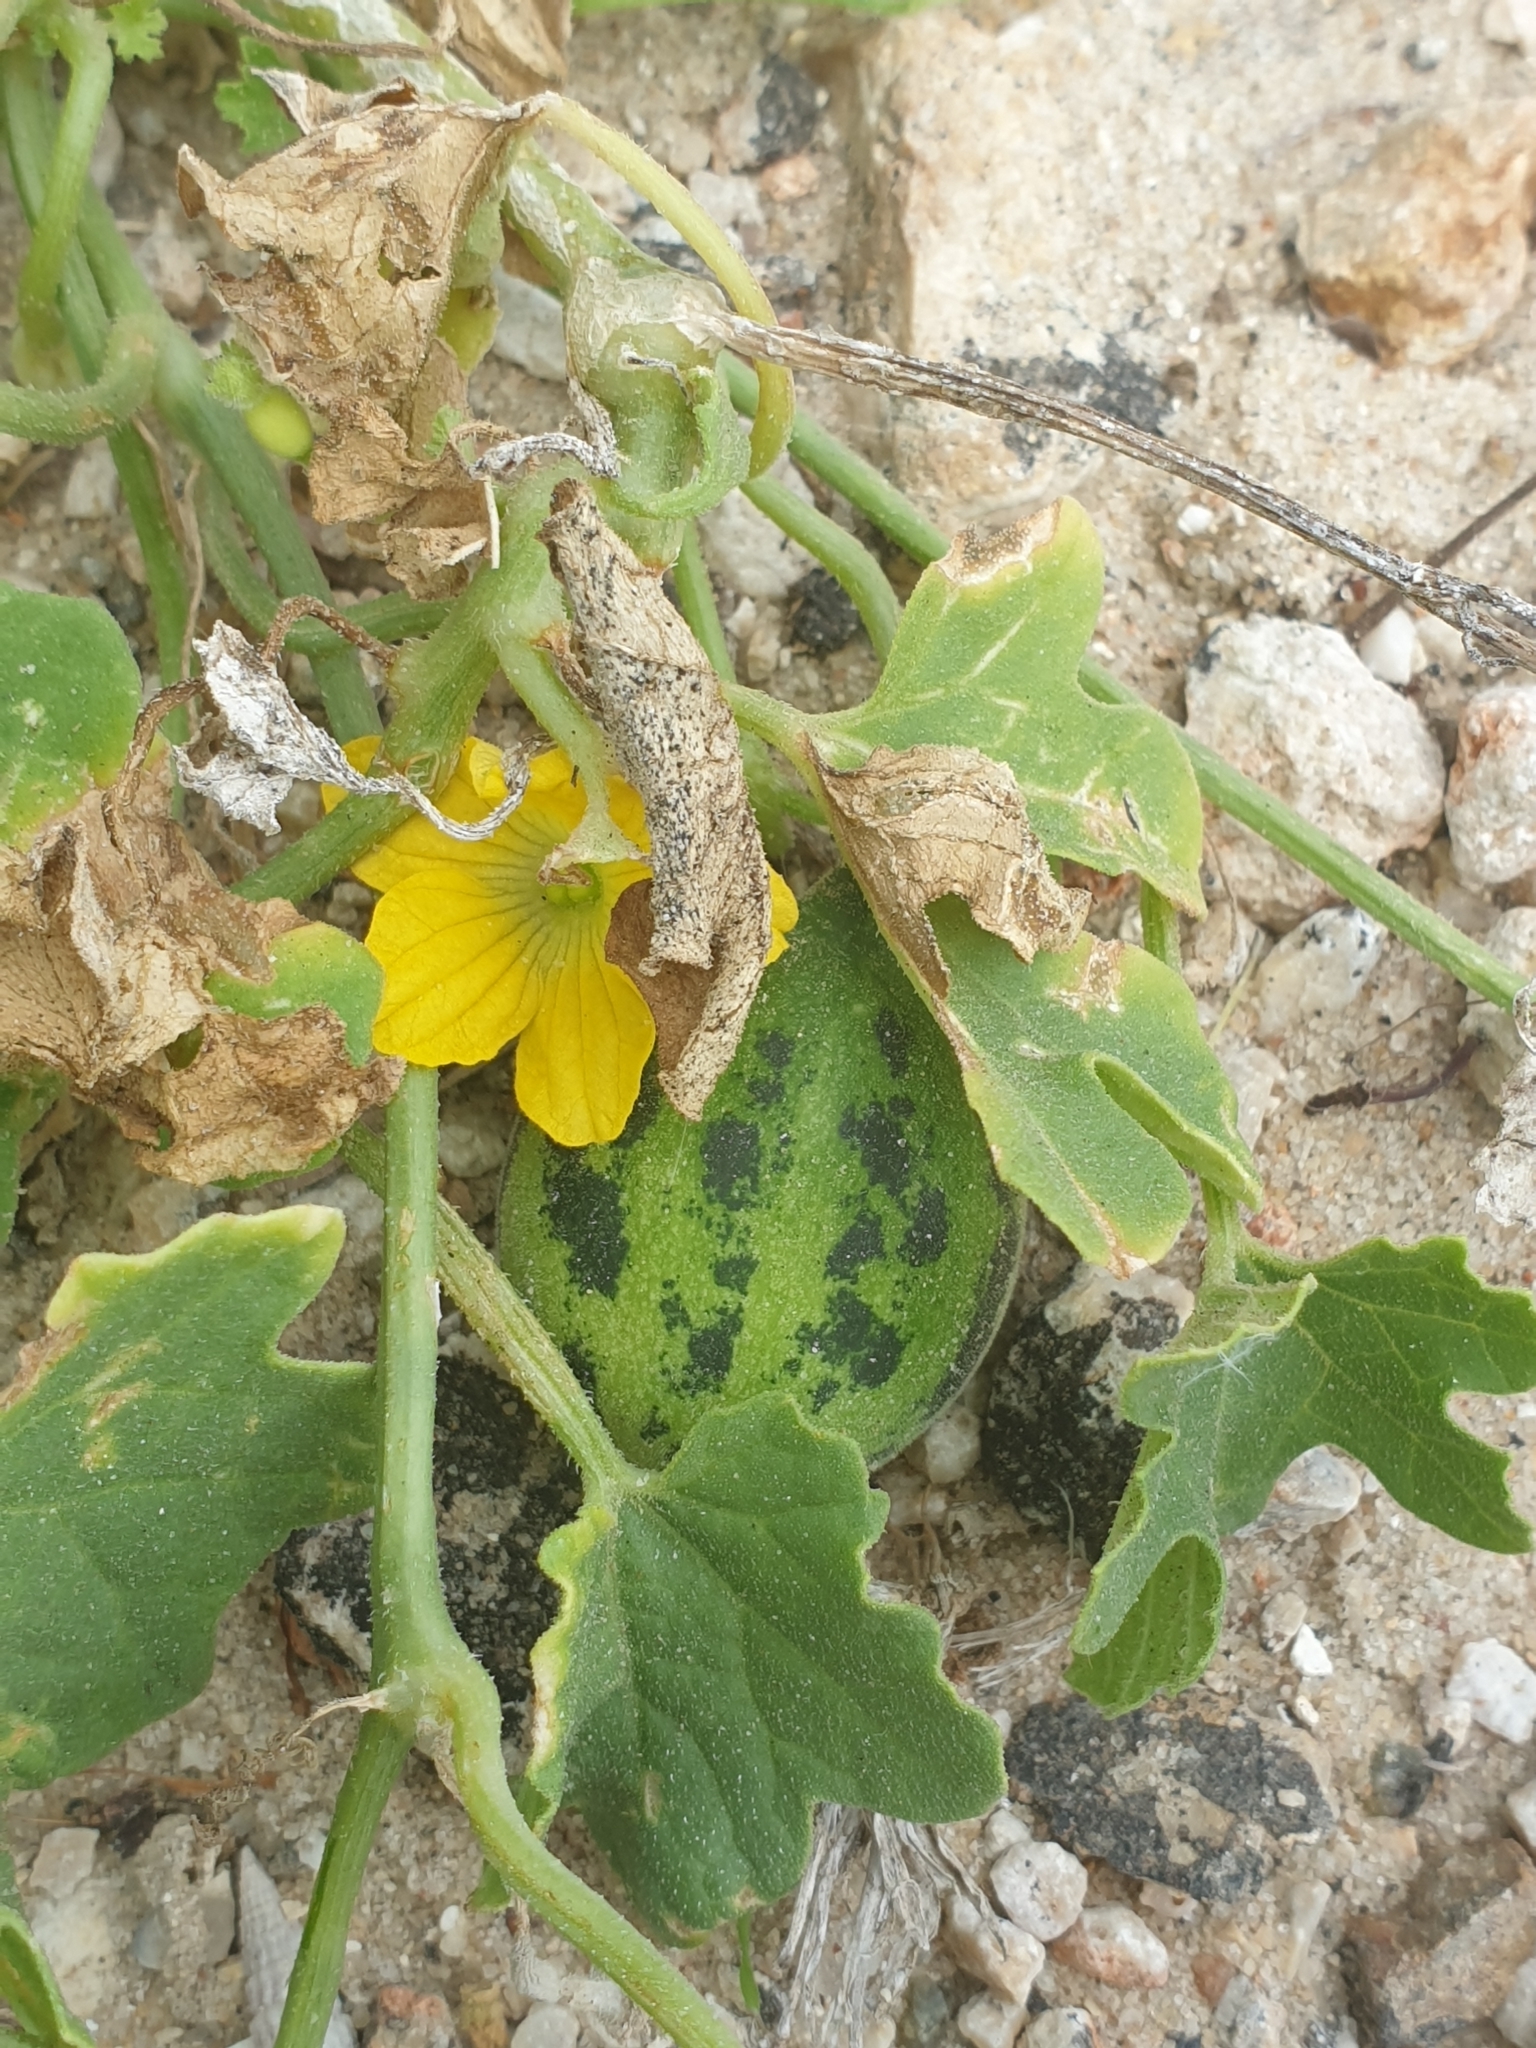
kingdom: Plantae
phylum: Tracheophyta
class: Magnoliopsida
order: Cucurbitales
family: Cucurbitaceae
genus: Cucumis
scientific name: Cucumis melo
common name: Melon
